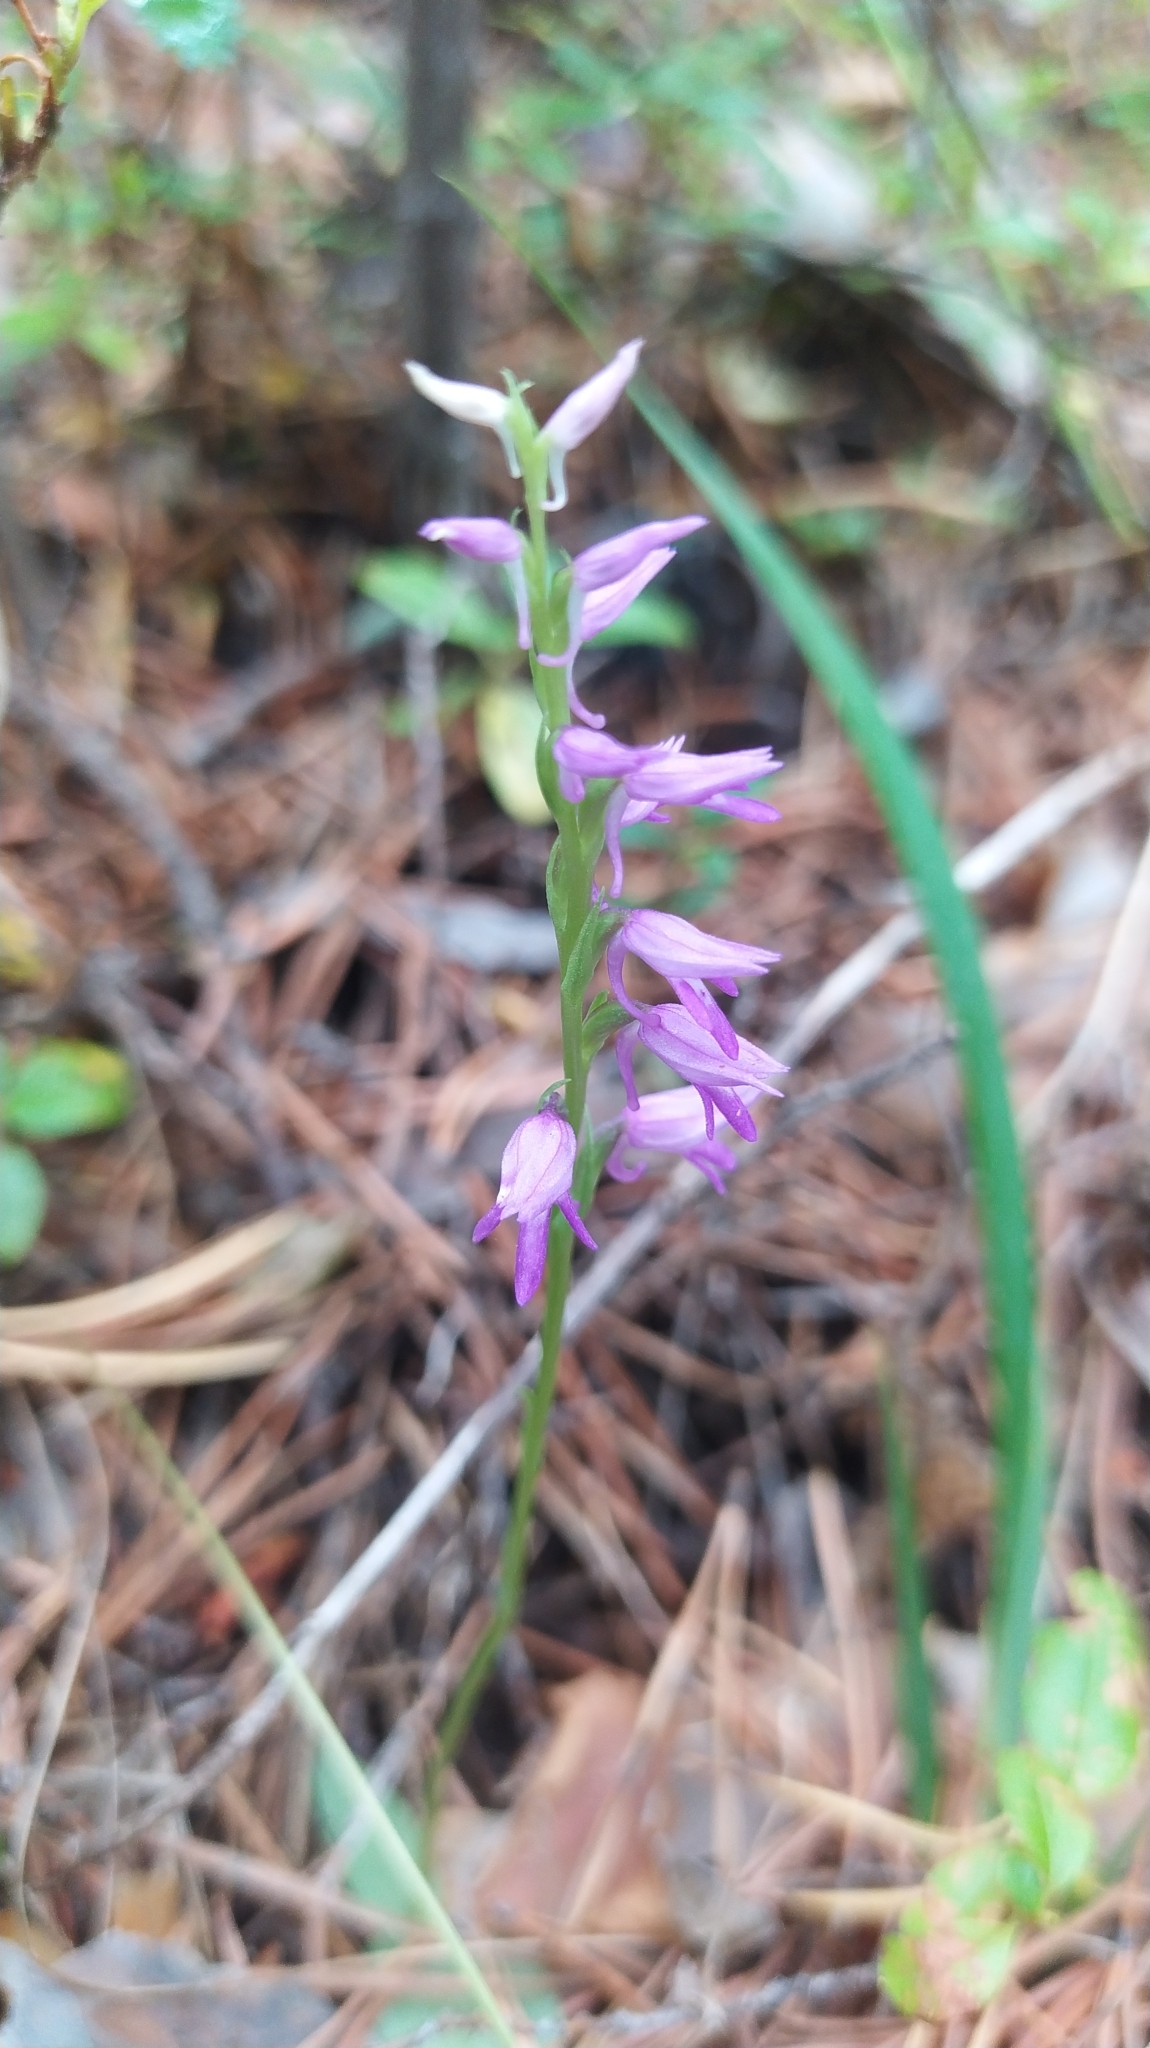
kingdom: Plantae
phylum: Tracheophyta
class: Liliopsida
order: Asparagales
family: Orchidaceae
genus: Hemipilia
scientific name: Hemipilia cucullata
